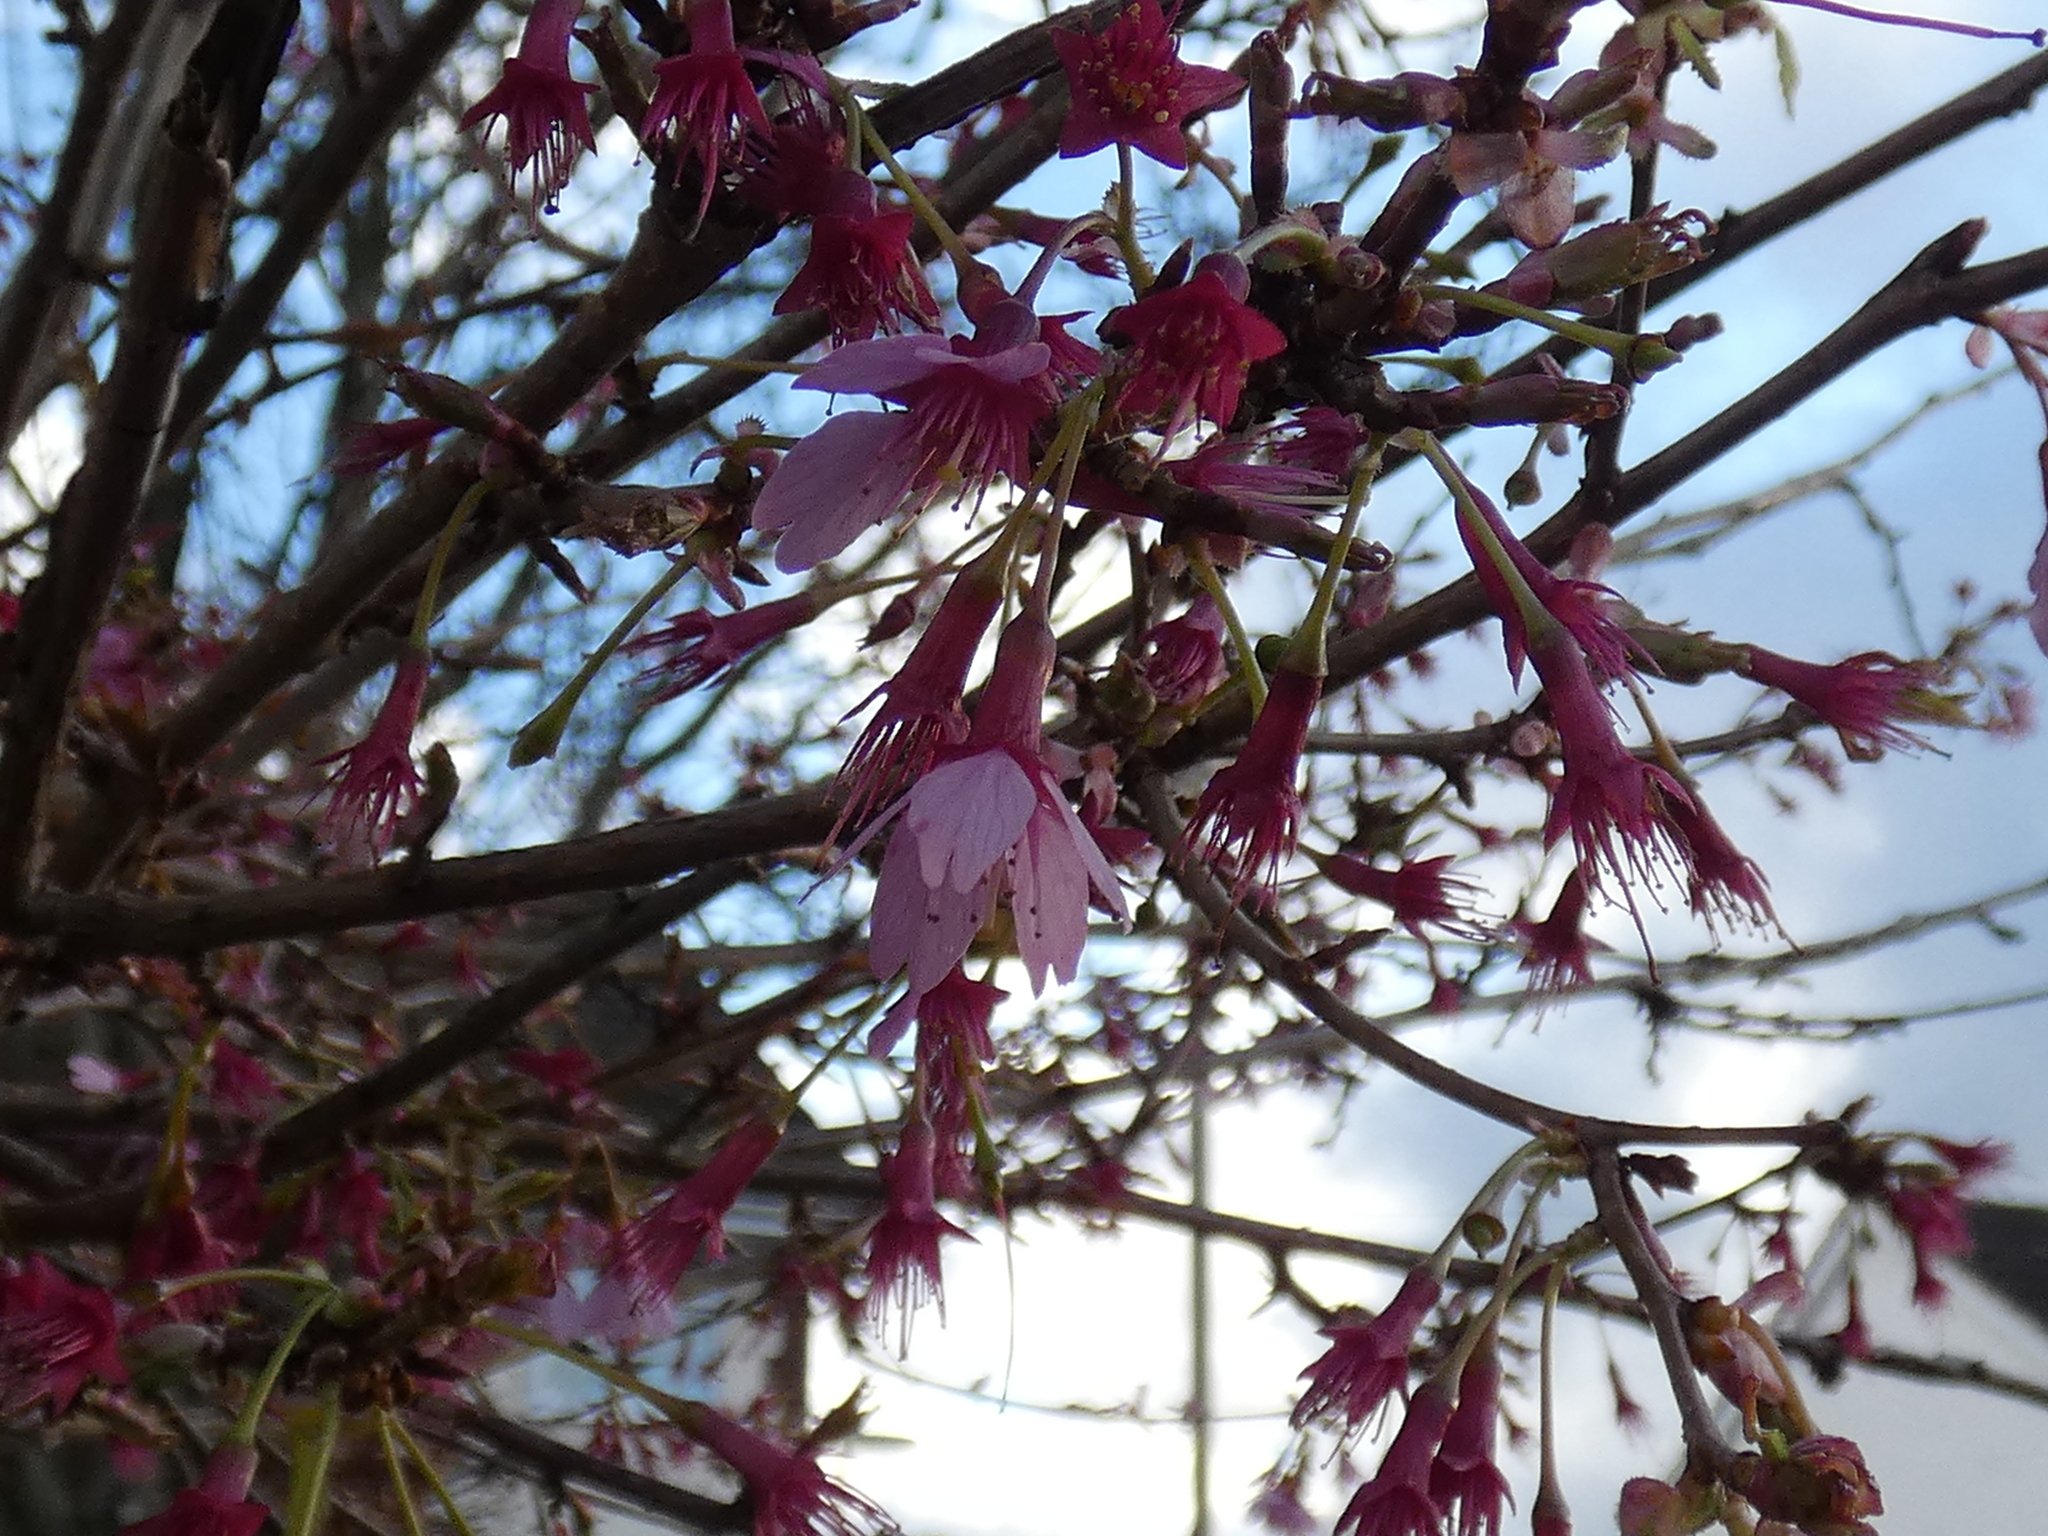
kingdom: Plantae
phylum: Tracheophyta
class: Magnoliopsida
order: Rosales
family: Rosaceae
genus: Prunus
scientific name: Prunus campanulata
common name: Taiwan flowering cherry
